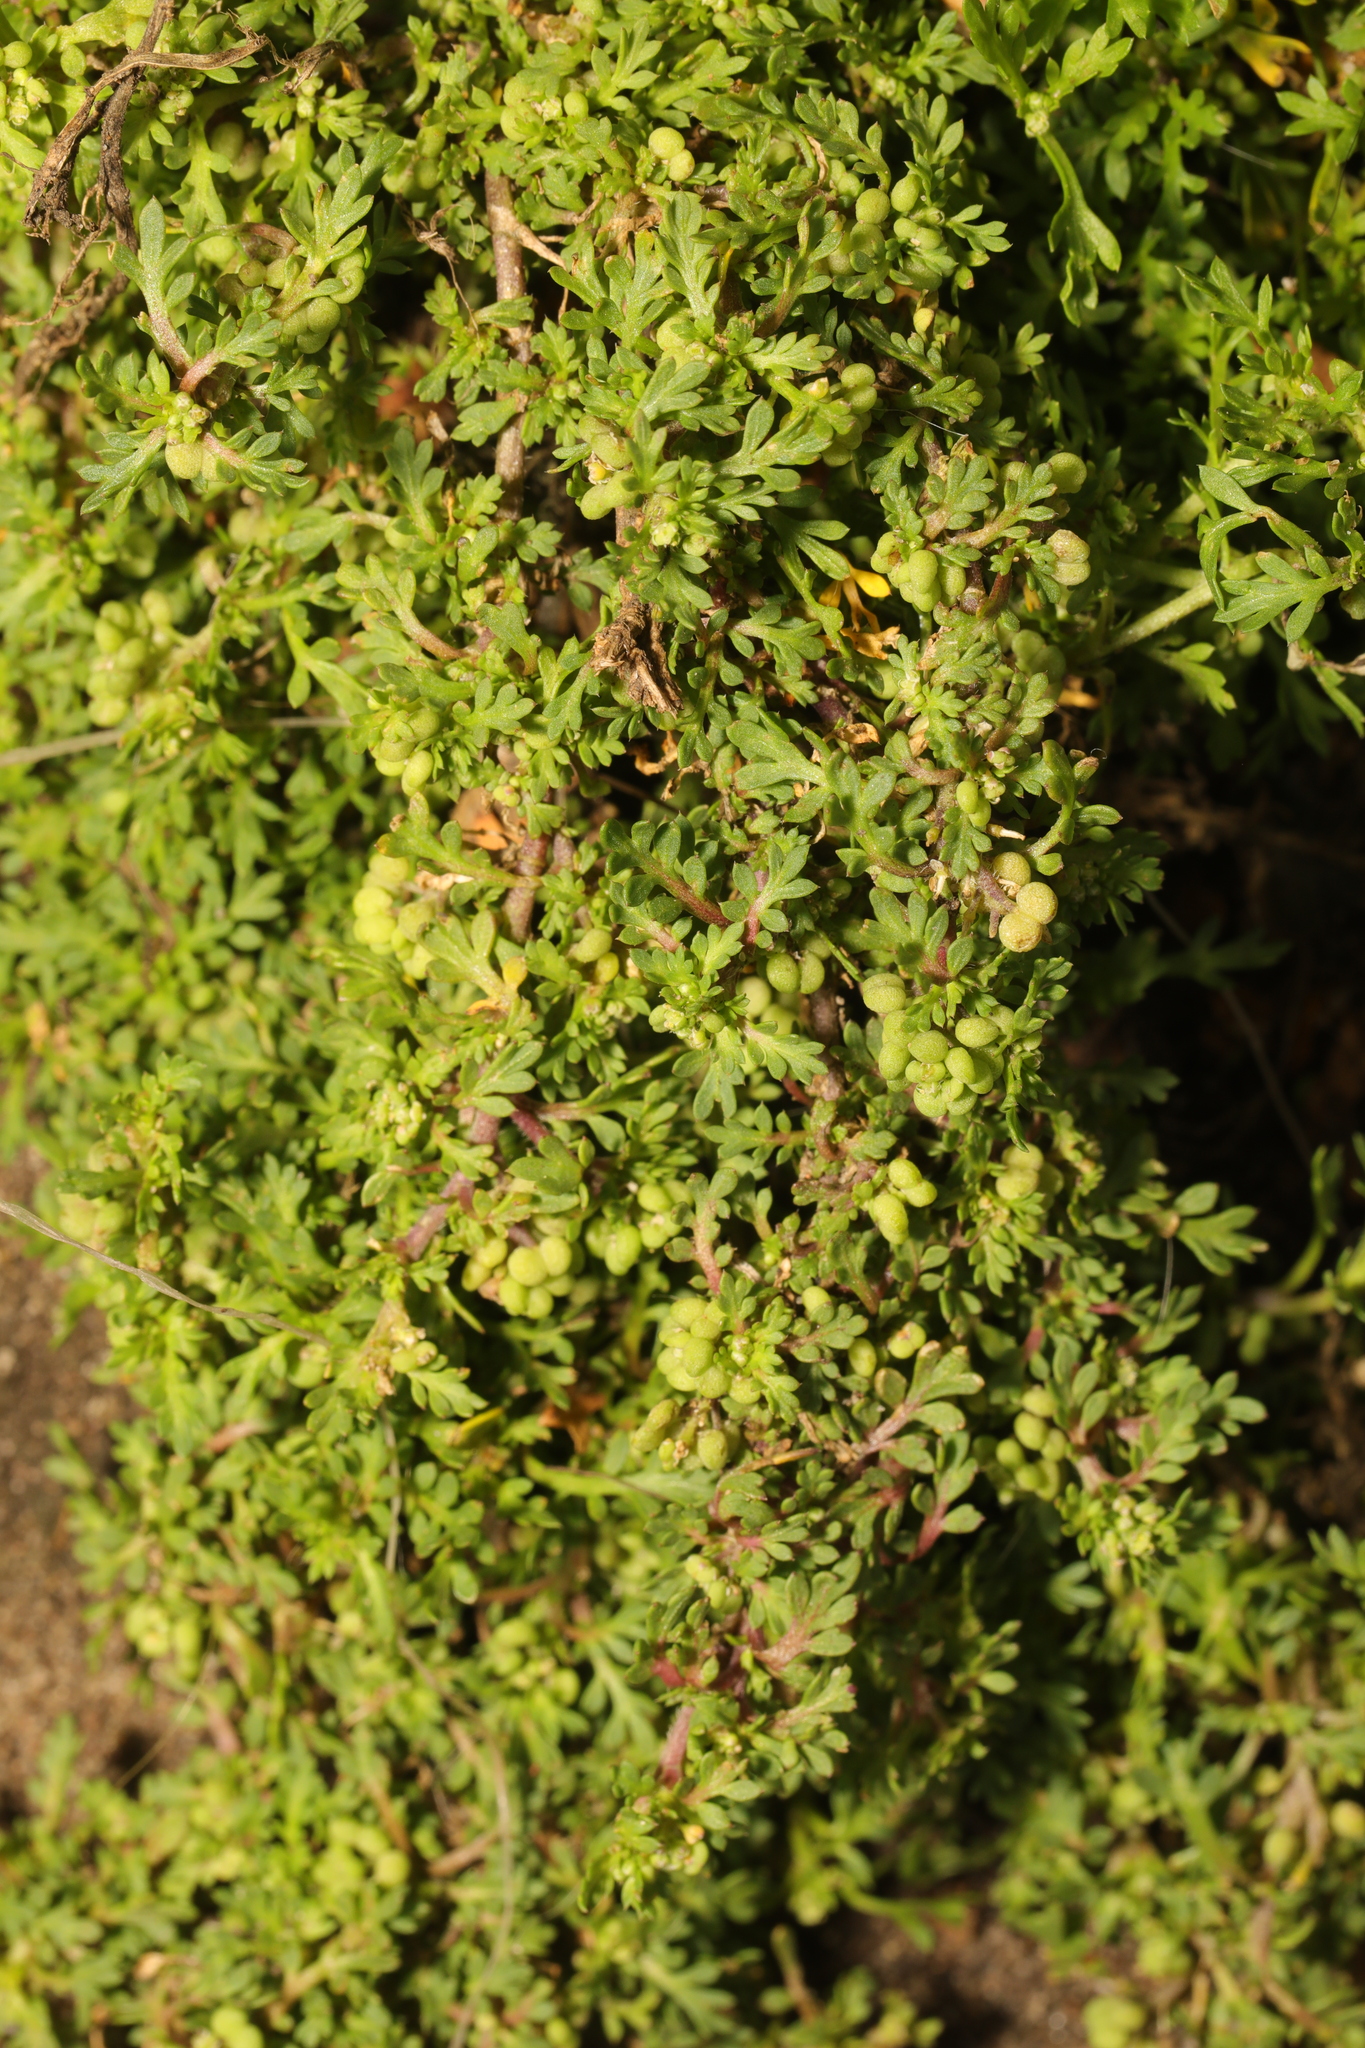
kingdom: Plantae
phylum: Tracheophyta
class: Magnoliopsida
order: Brassicales
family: Brassicaceae
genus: Lepidium
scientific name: Lepidium didymum
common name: Lesser swinecress
